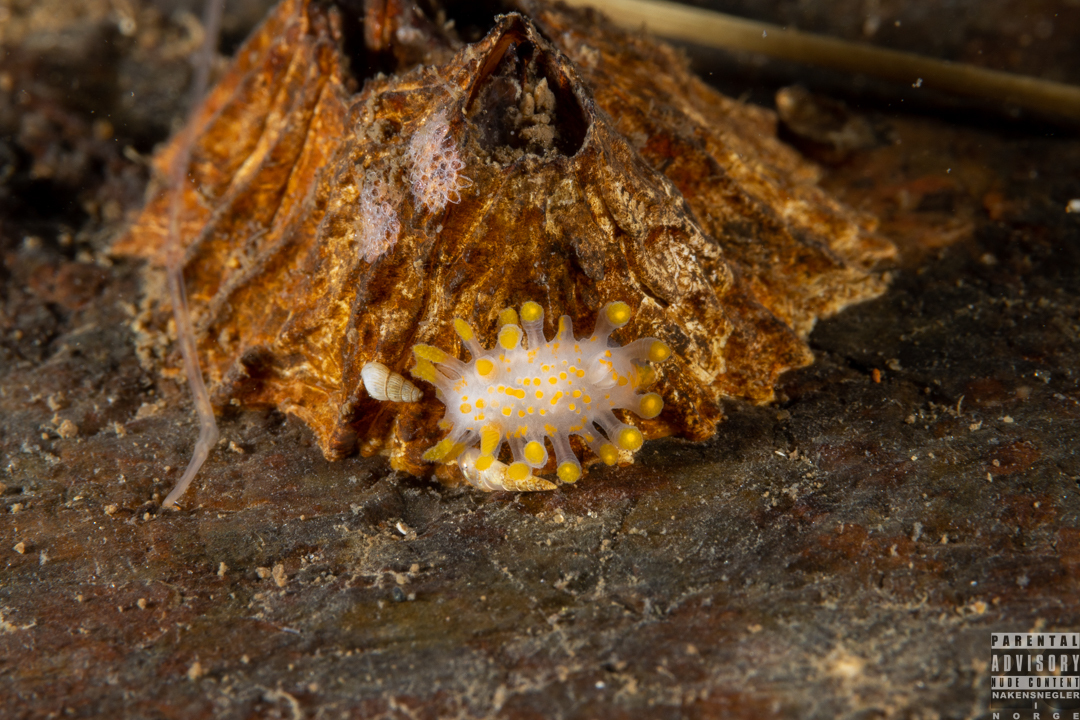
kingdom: Animalia
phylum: Mollusca
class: Gastropoda
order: Nudibranchia
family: Polyceridae
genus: Limacia
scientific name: Limacia clavigera
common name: Orange-clubbed sea slug
